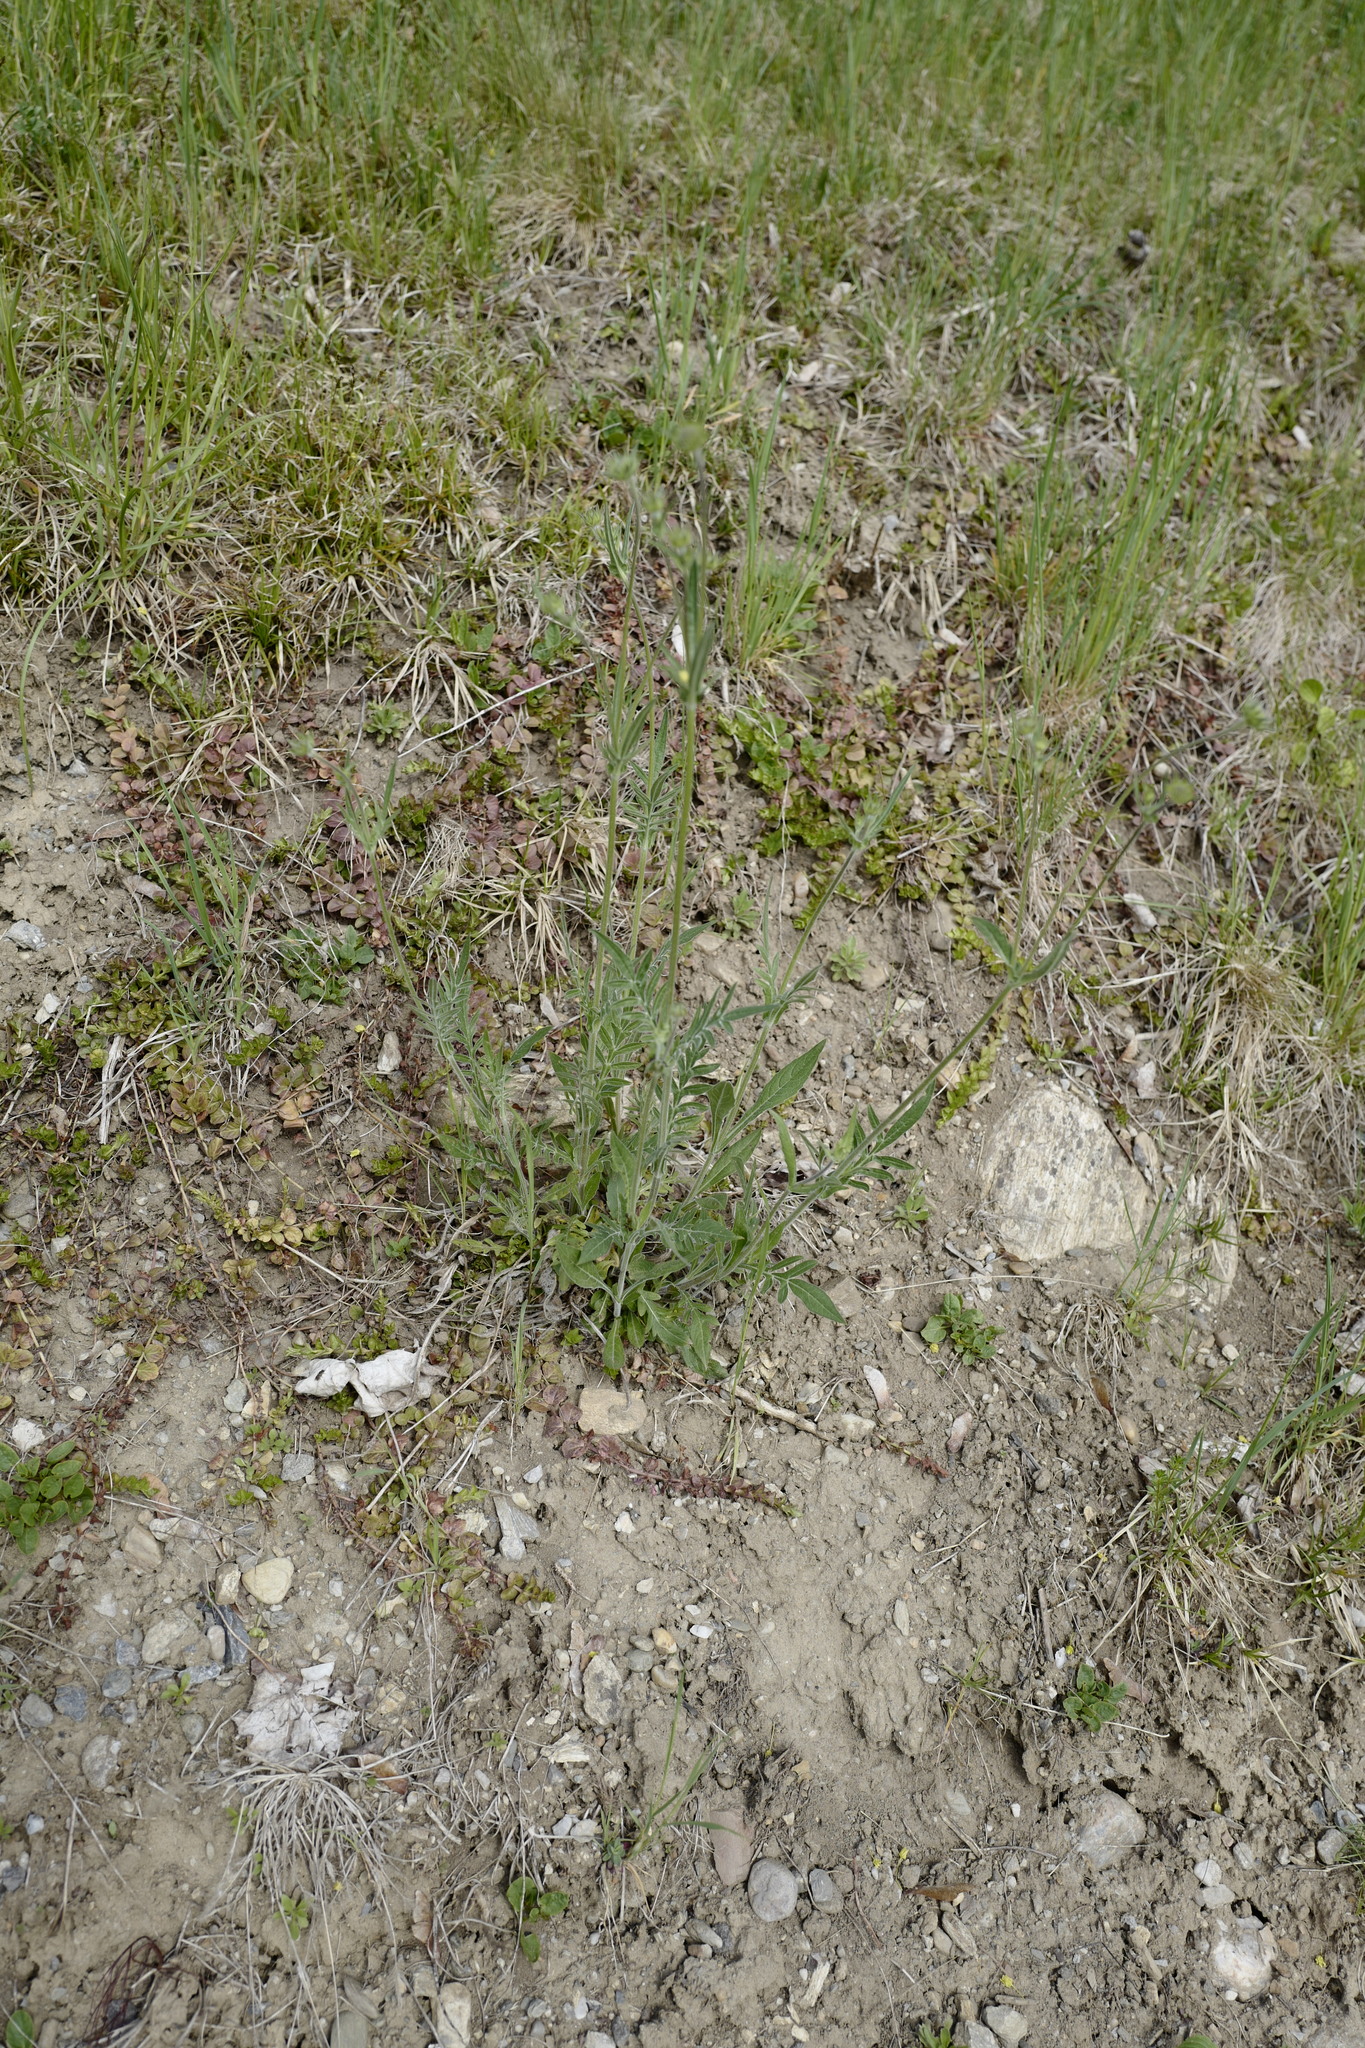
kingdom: Plantae
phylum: Tracheophyta
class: Magnoliopsida
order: Dipsacales
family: Caprifoliaceae
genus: Knautia
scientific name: Knautia arvensis
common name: Field scabiosa
